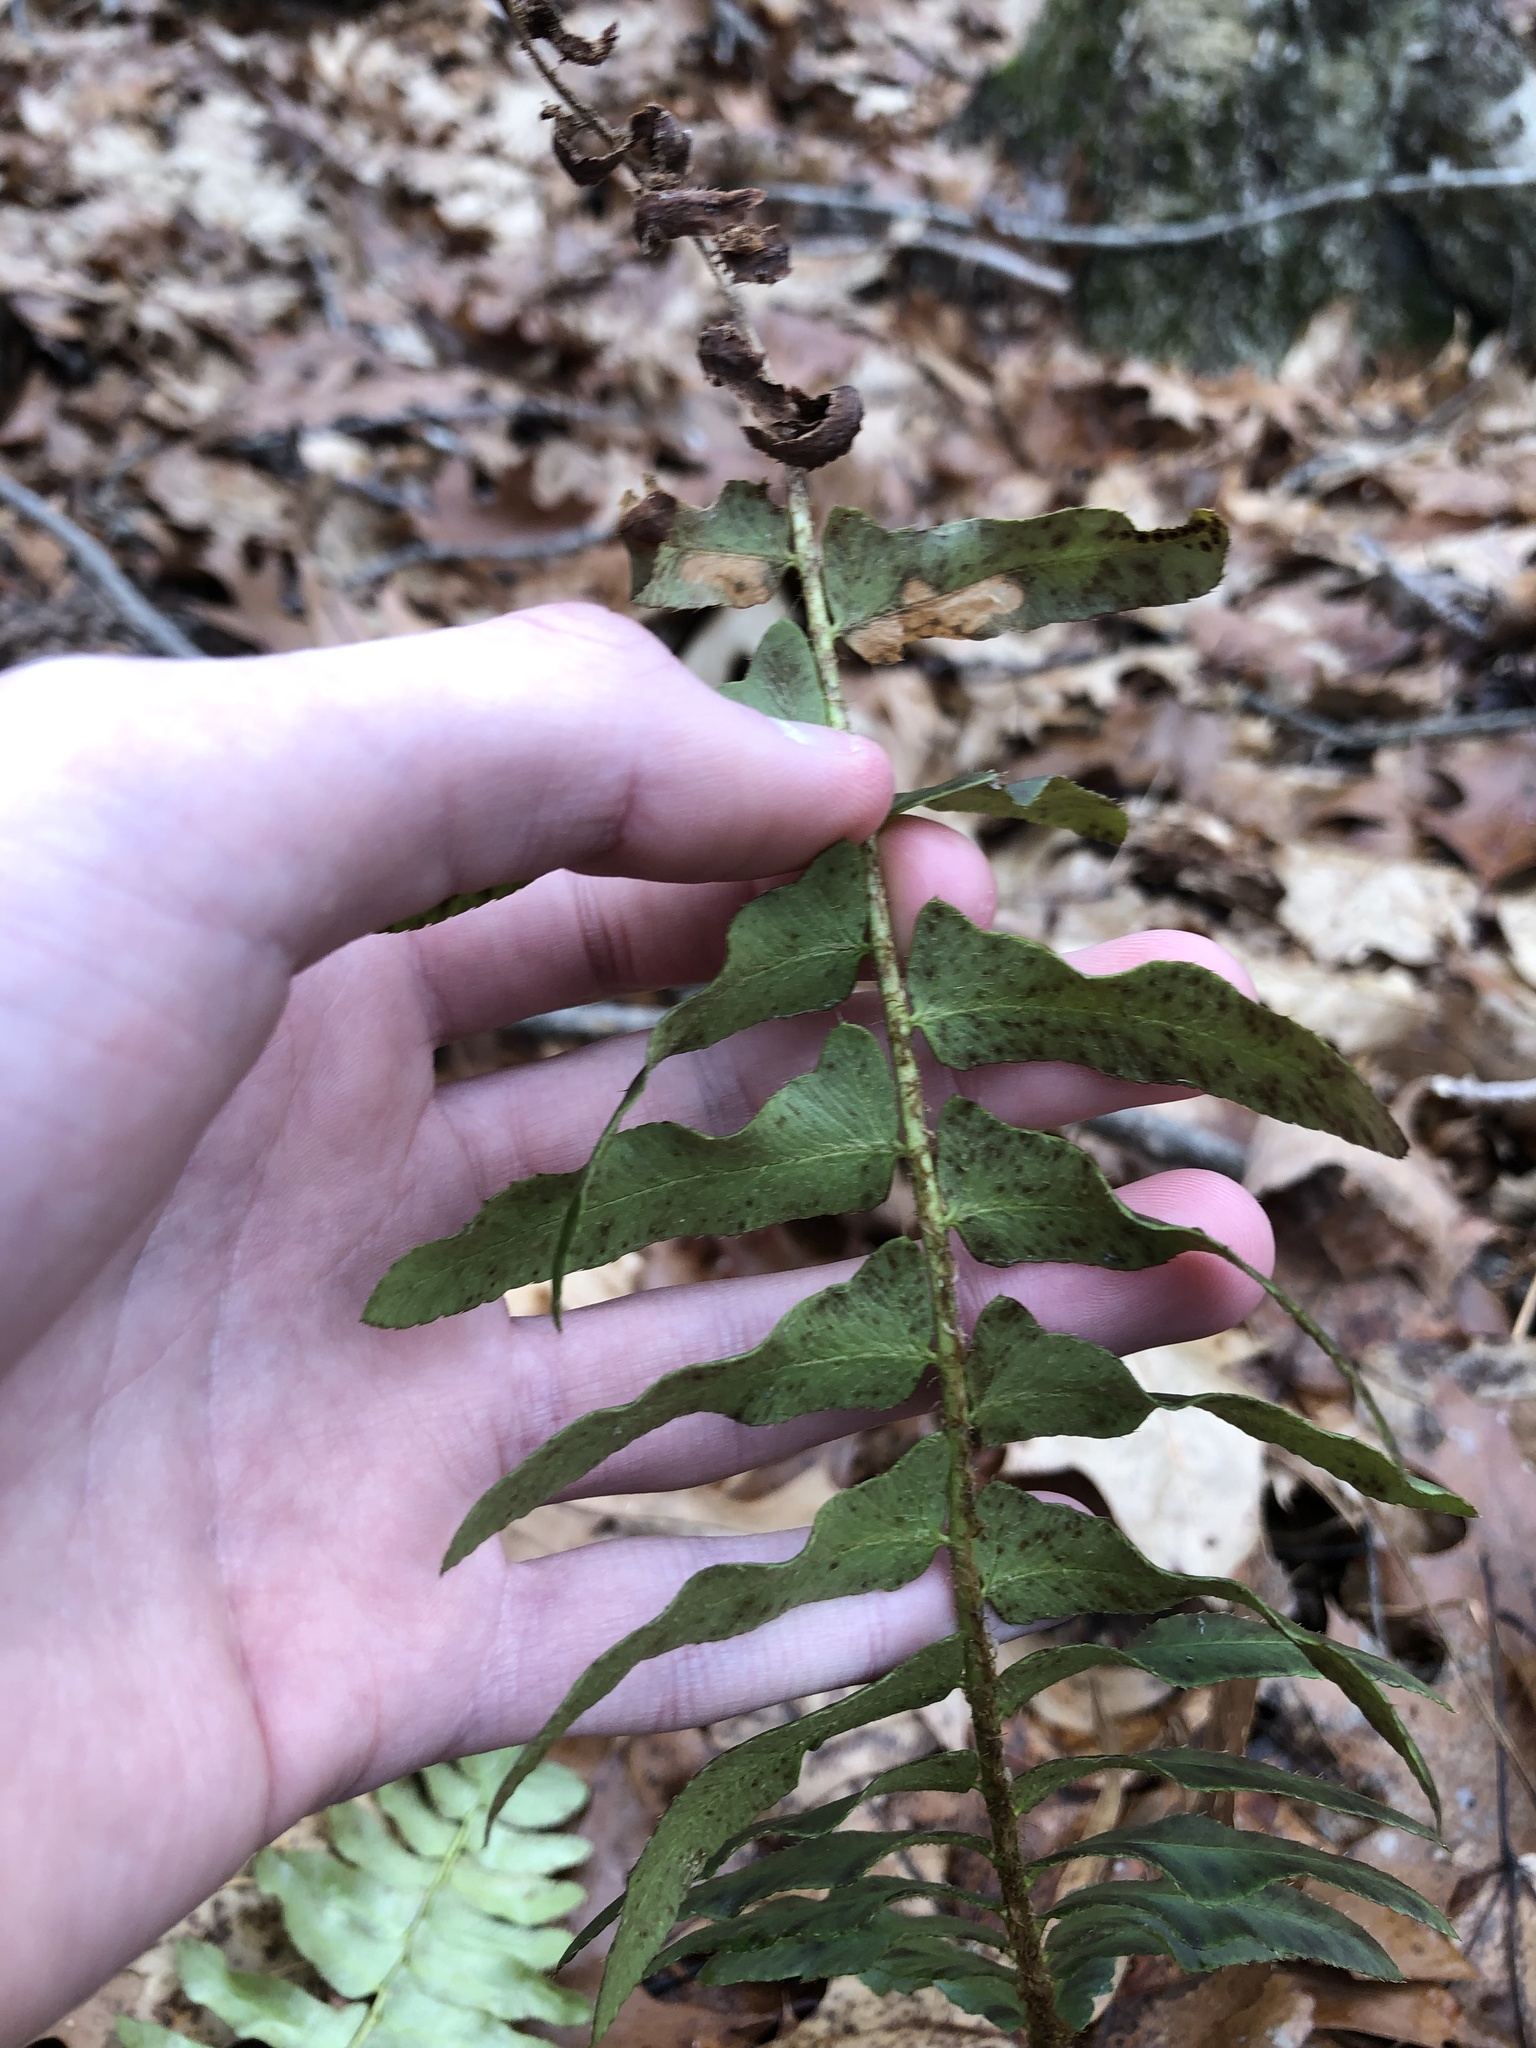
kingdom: Plantae
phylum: Tracheophyta
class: Polypodiopsida
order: Polypodiales
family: Dryopteridaceae
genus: Polystichum
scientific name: Polystichum acrostichoides
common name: Christmas fern
